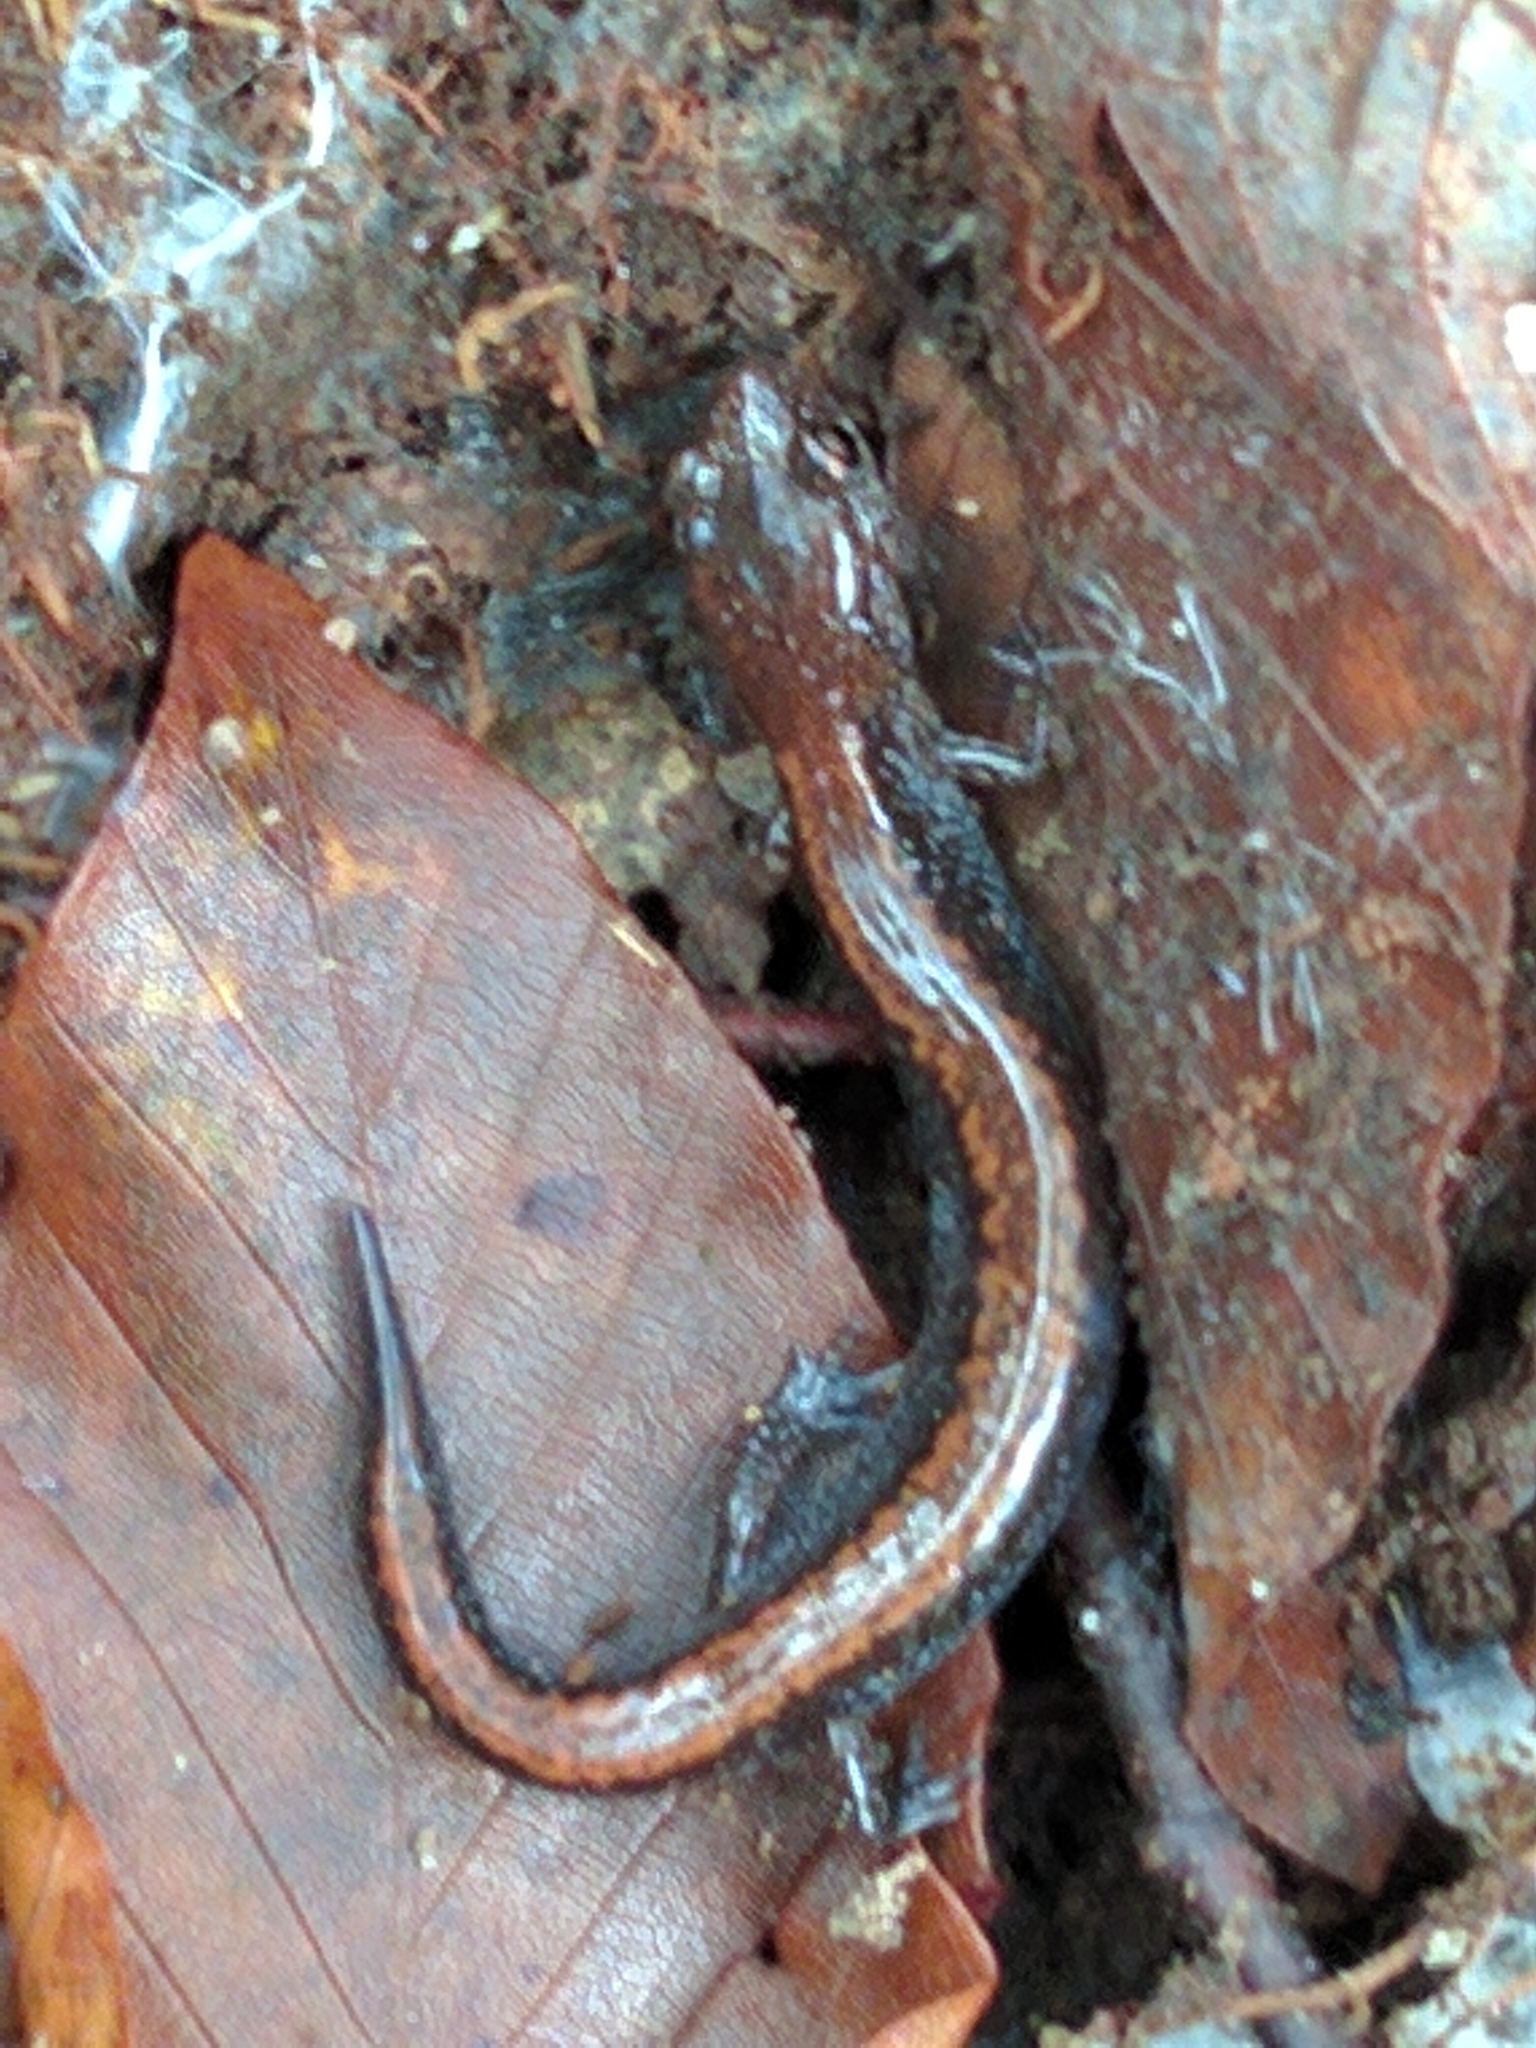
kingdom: Animalia
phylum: Chordata
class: Amphibia
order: Caudata
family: Plethodontidae
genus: Plethodon
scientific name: Plethodon cinereus
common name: Redback salamander
